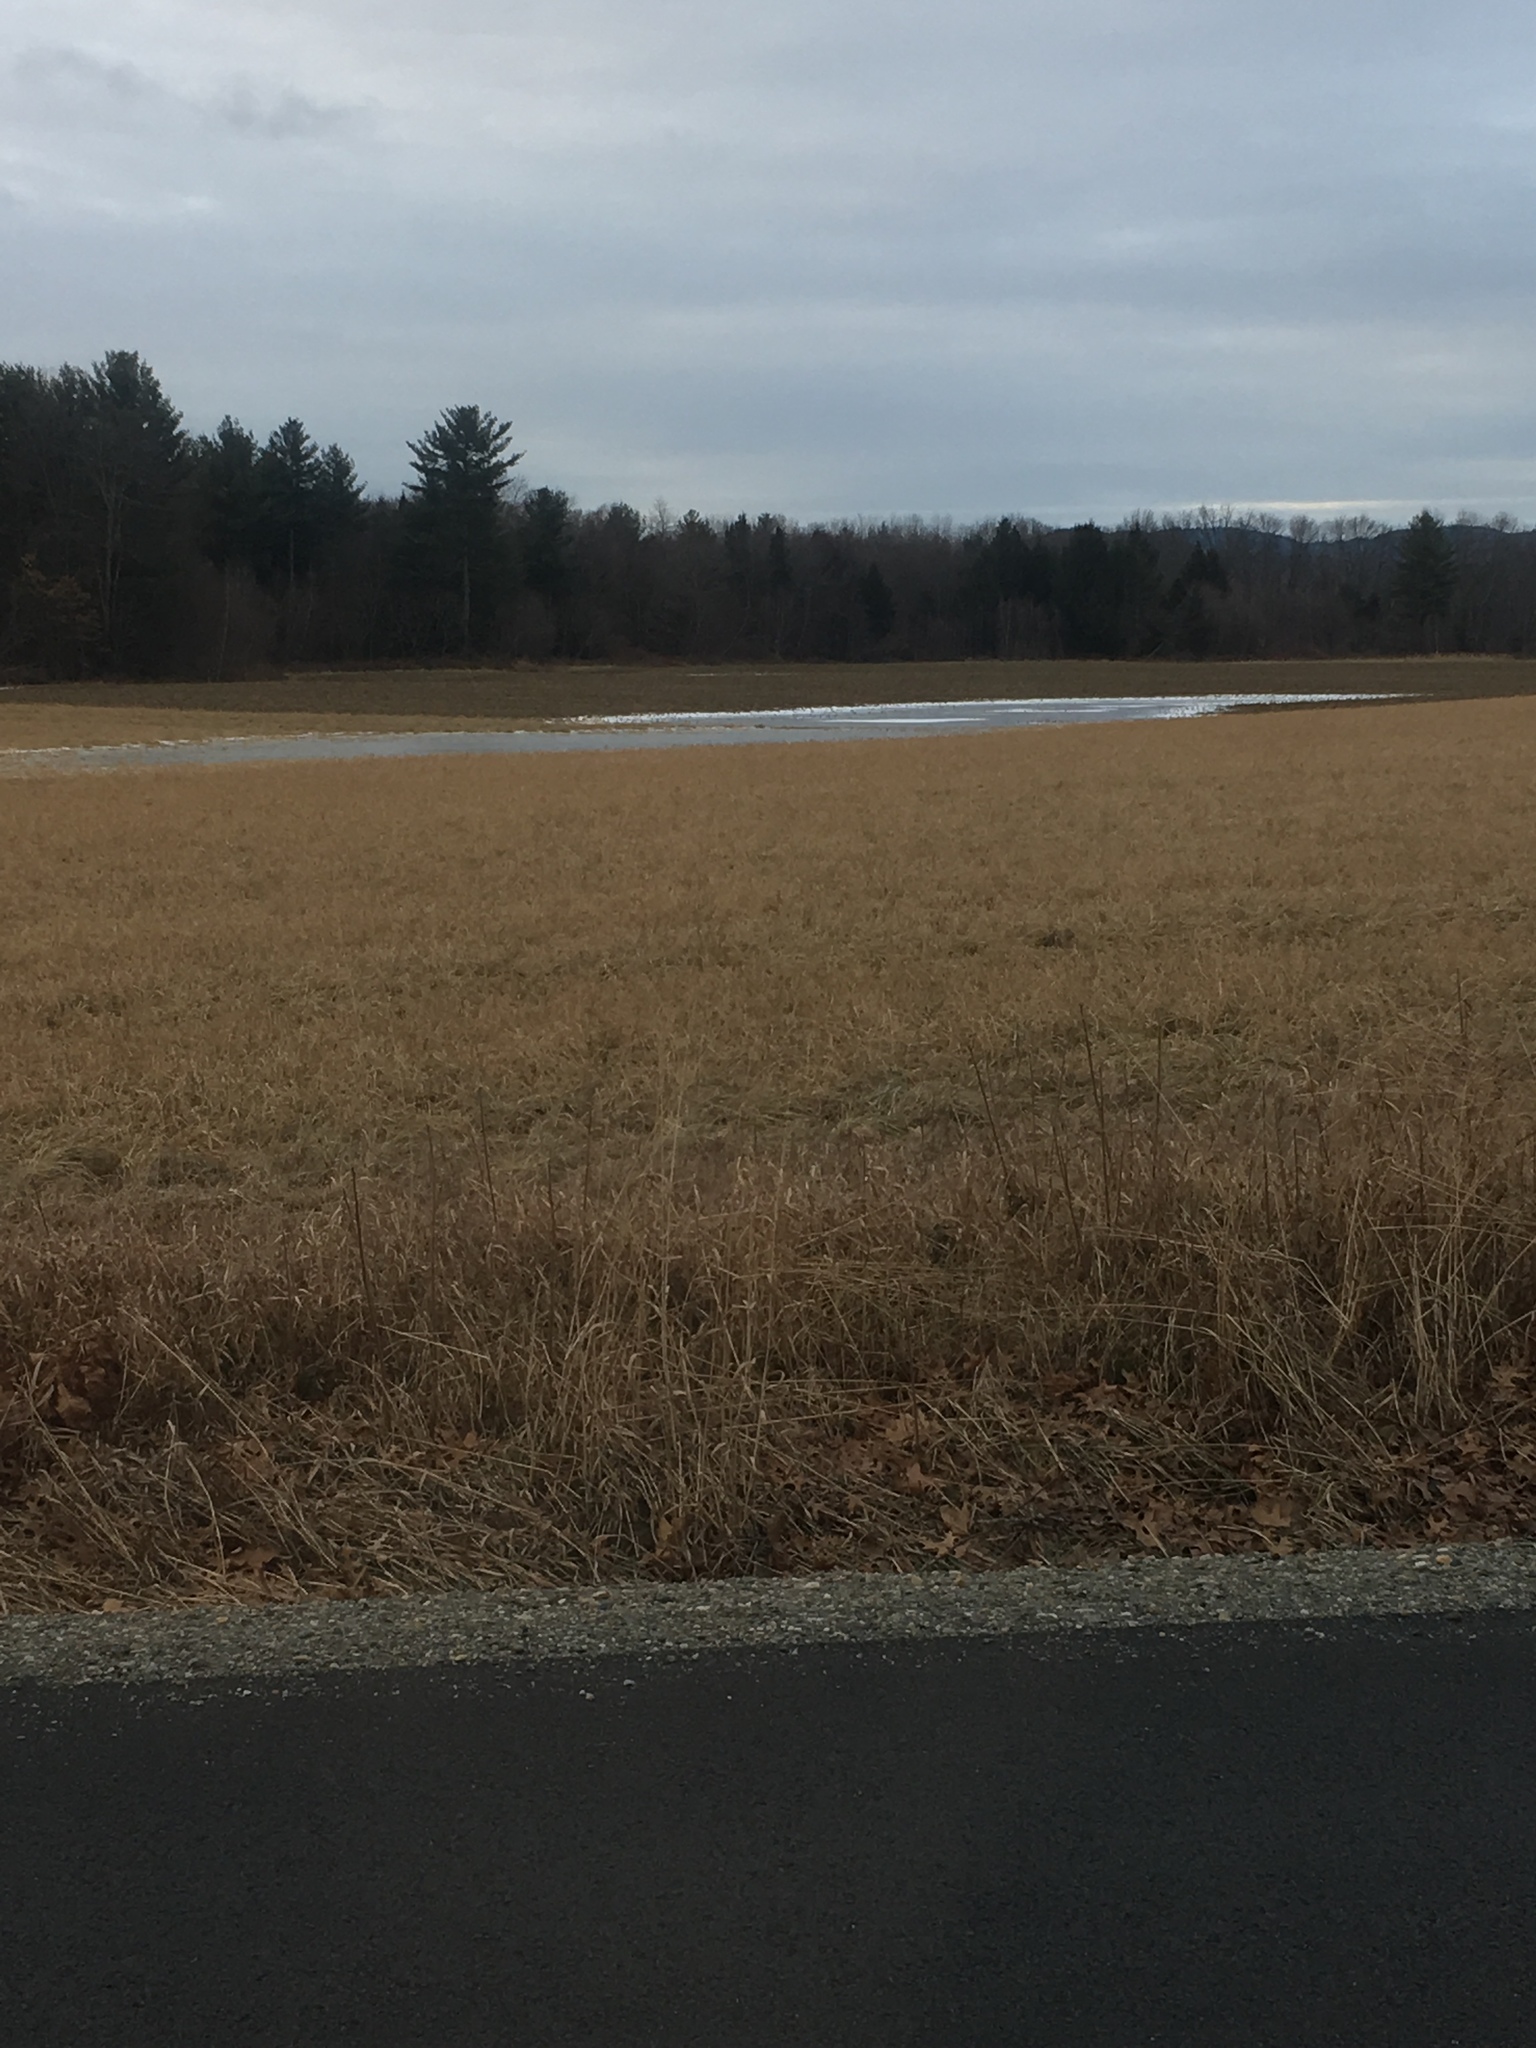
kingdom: Plantae
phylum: Tracheophyta
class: Pinopsida
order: Pinales
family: Pinaceae
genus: Pinus
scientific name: Pinus strobus
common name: Weymouth pine
